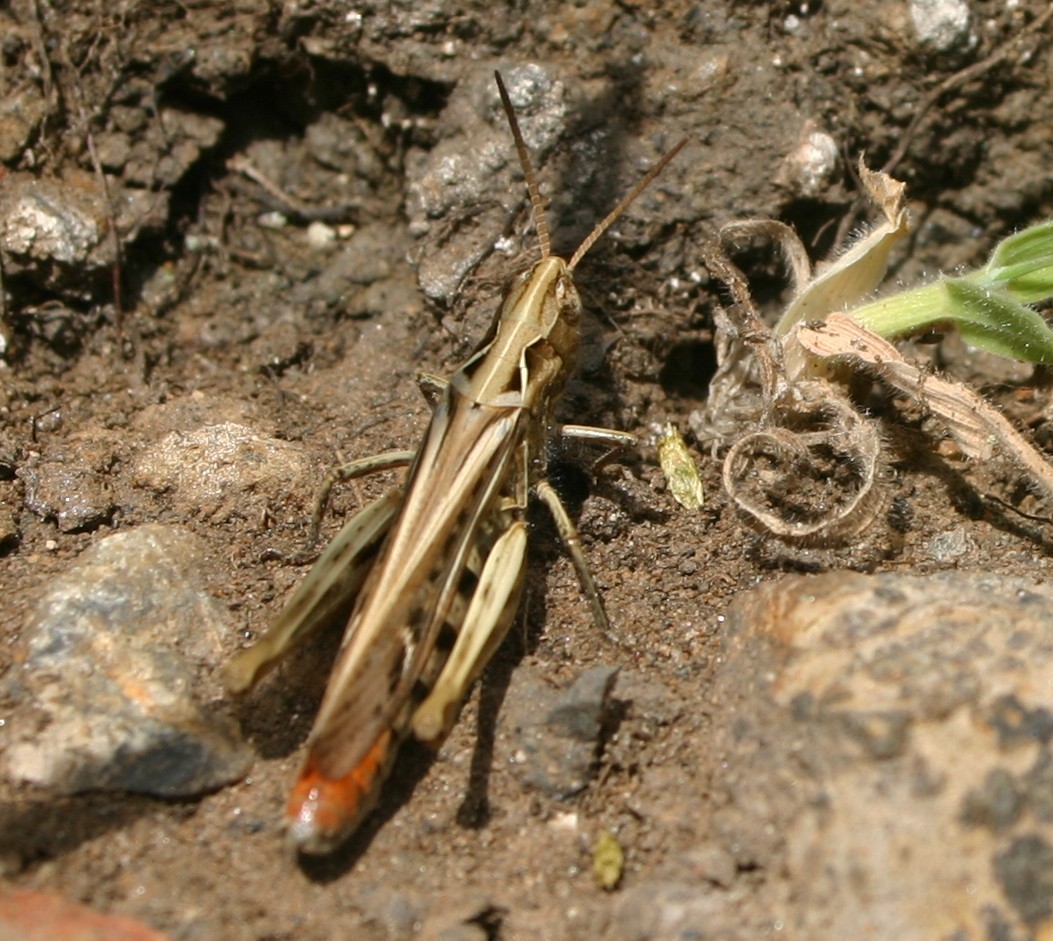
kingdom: Animalia
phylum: Arthropoda
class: Insecta
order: Orthoptera
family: Acrididae
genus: Chorthippus
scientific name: Chorthippus brunneus
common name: Field grasshopper
